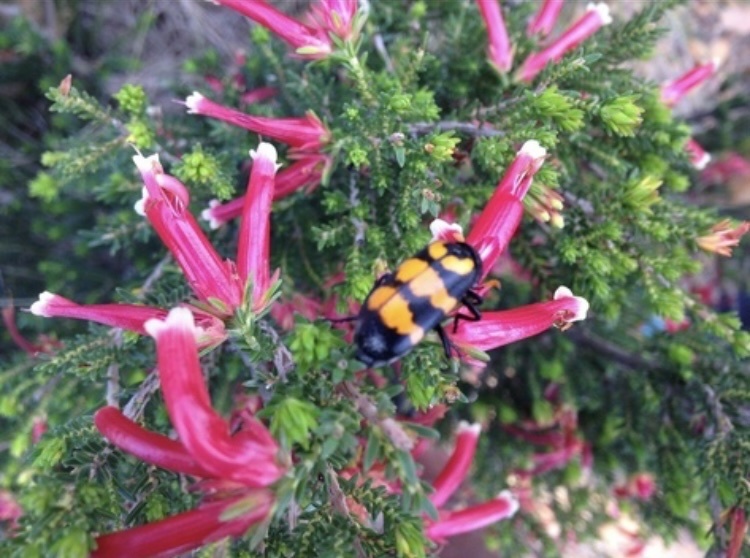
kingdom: Animalia
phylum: Arthropoda
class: Insecta
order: Coleoptera
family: Meloidae
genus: Meloe
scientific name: Meloe lunata
